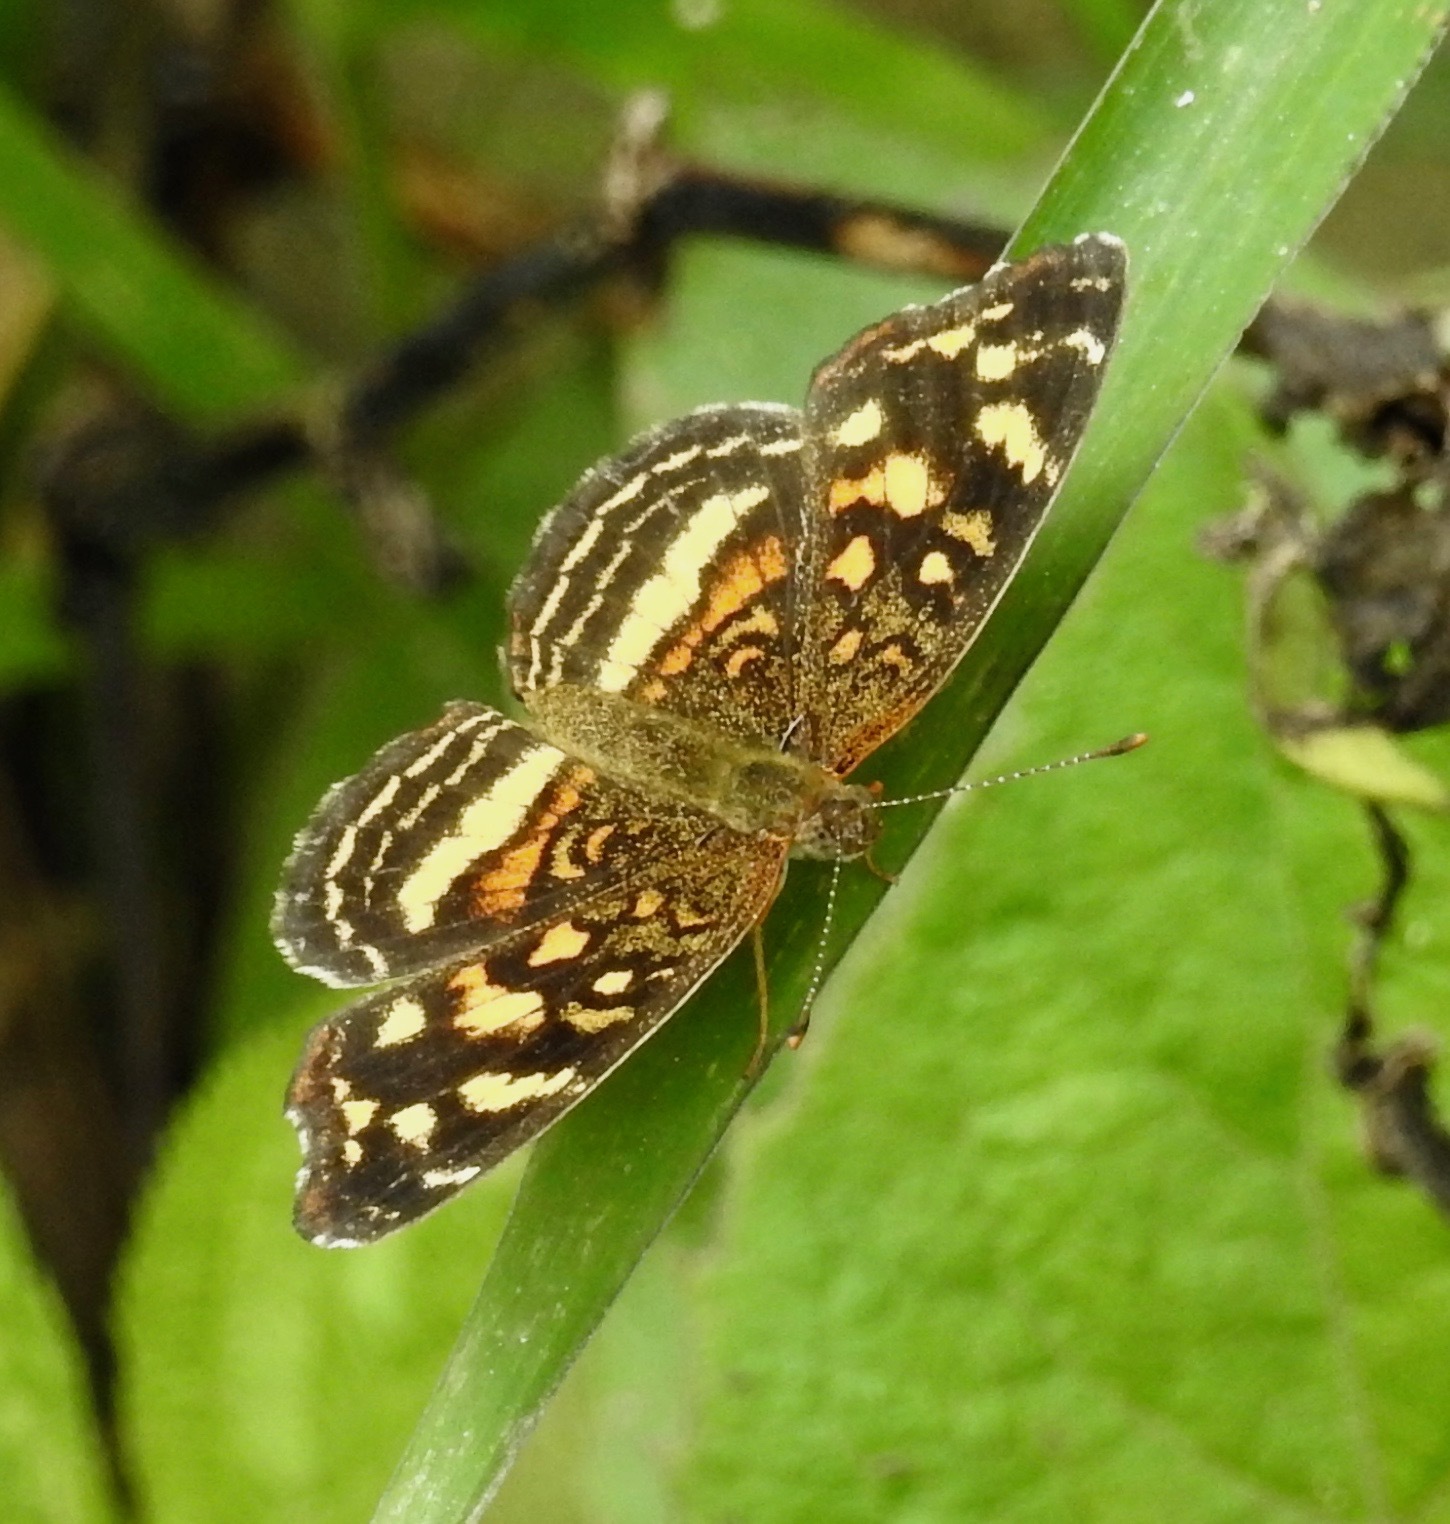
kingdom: Animalia
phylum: Arthropoda
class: Insecta
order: Lepidoptera
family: Nymphalidae
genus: Anthanassa
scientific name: Anthanassa drusilla
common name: Orange-patched crescent
